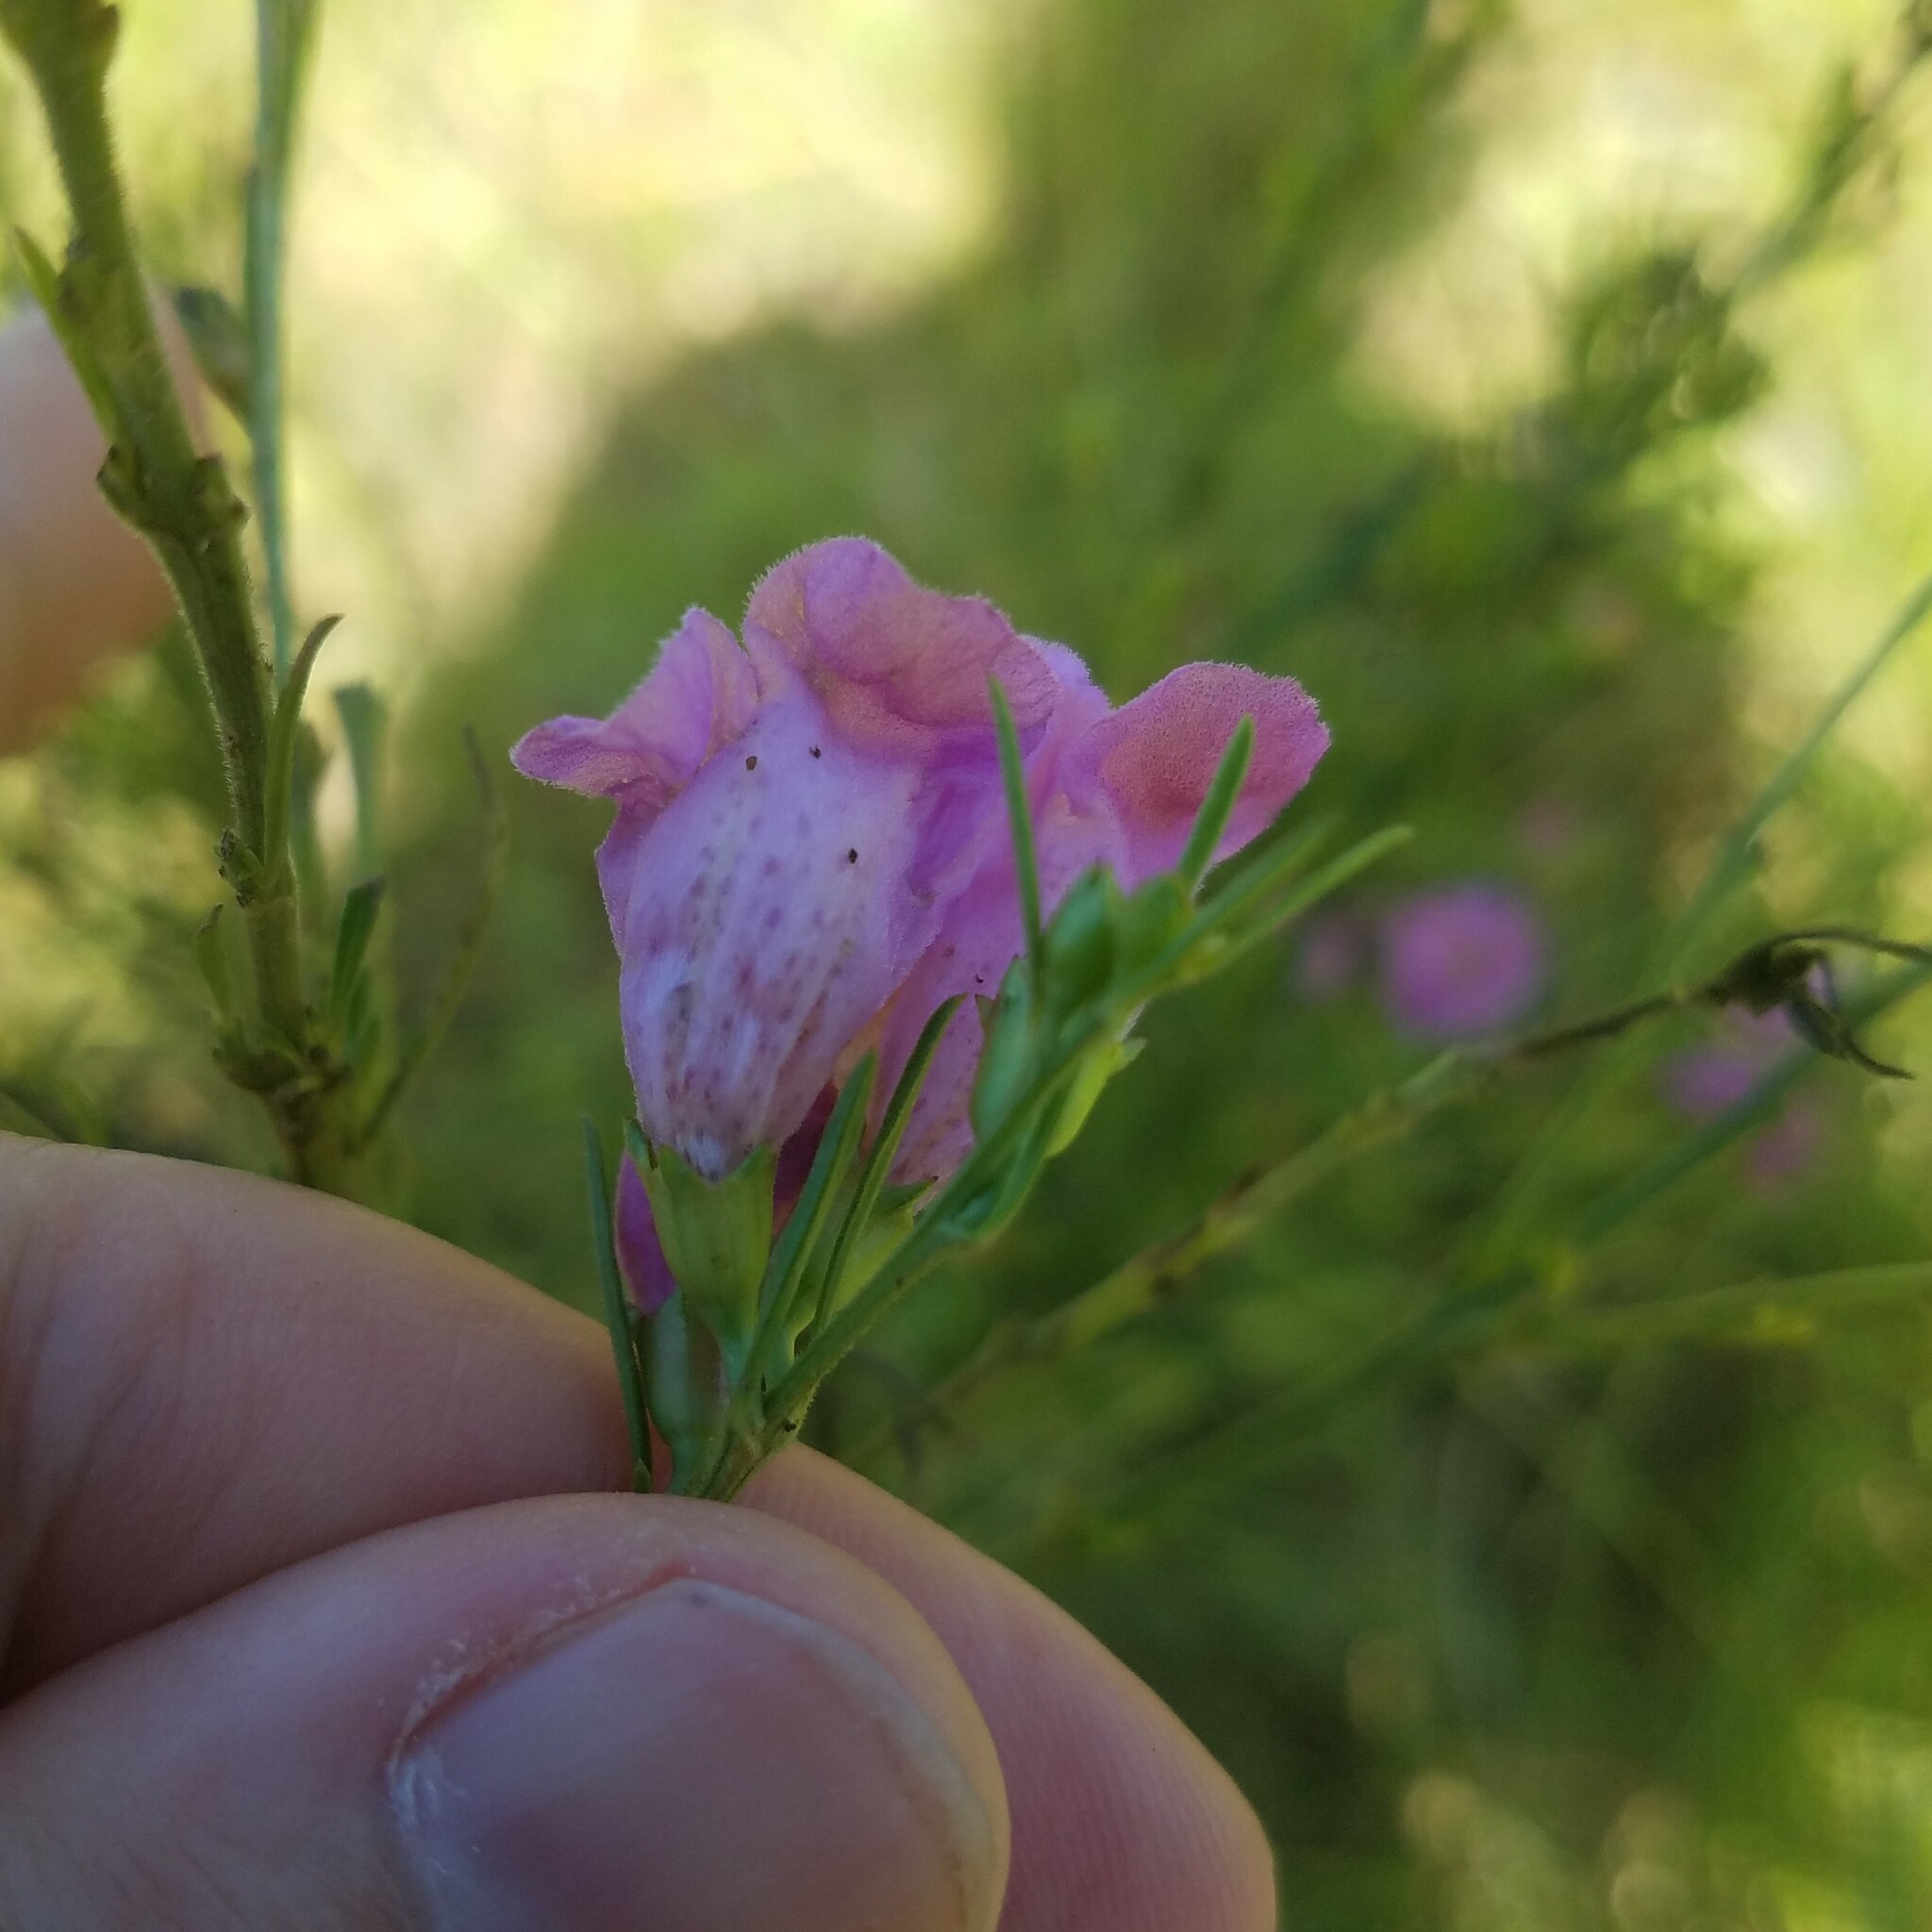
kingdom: Plantae
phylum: Tracheophyta
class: Magnoliopsida
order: Lamiales
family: Orobanchaceae
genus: Agalinis
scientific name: Agalinis fasciculata
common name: Beach false foxglove
